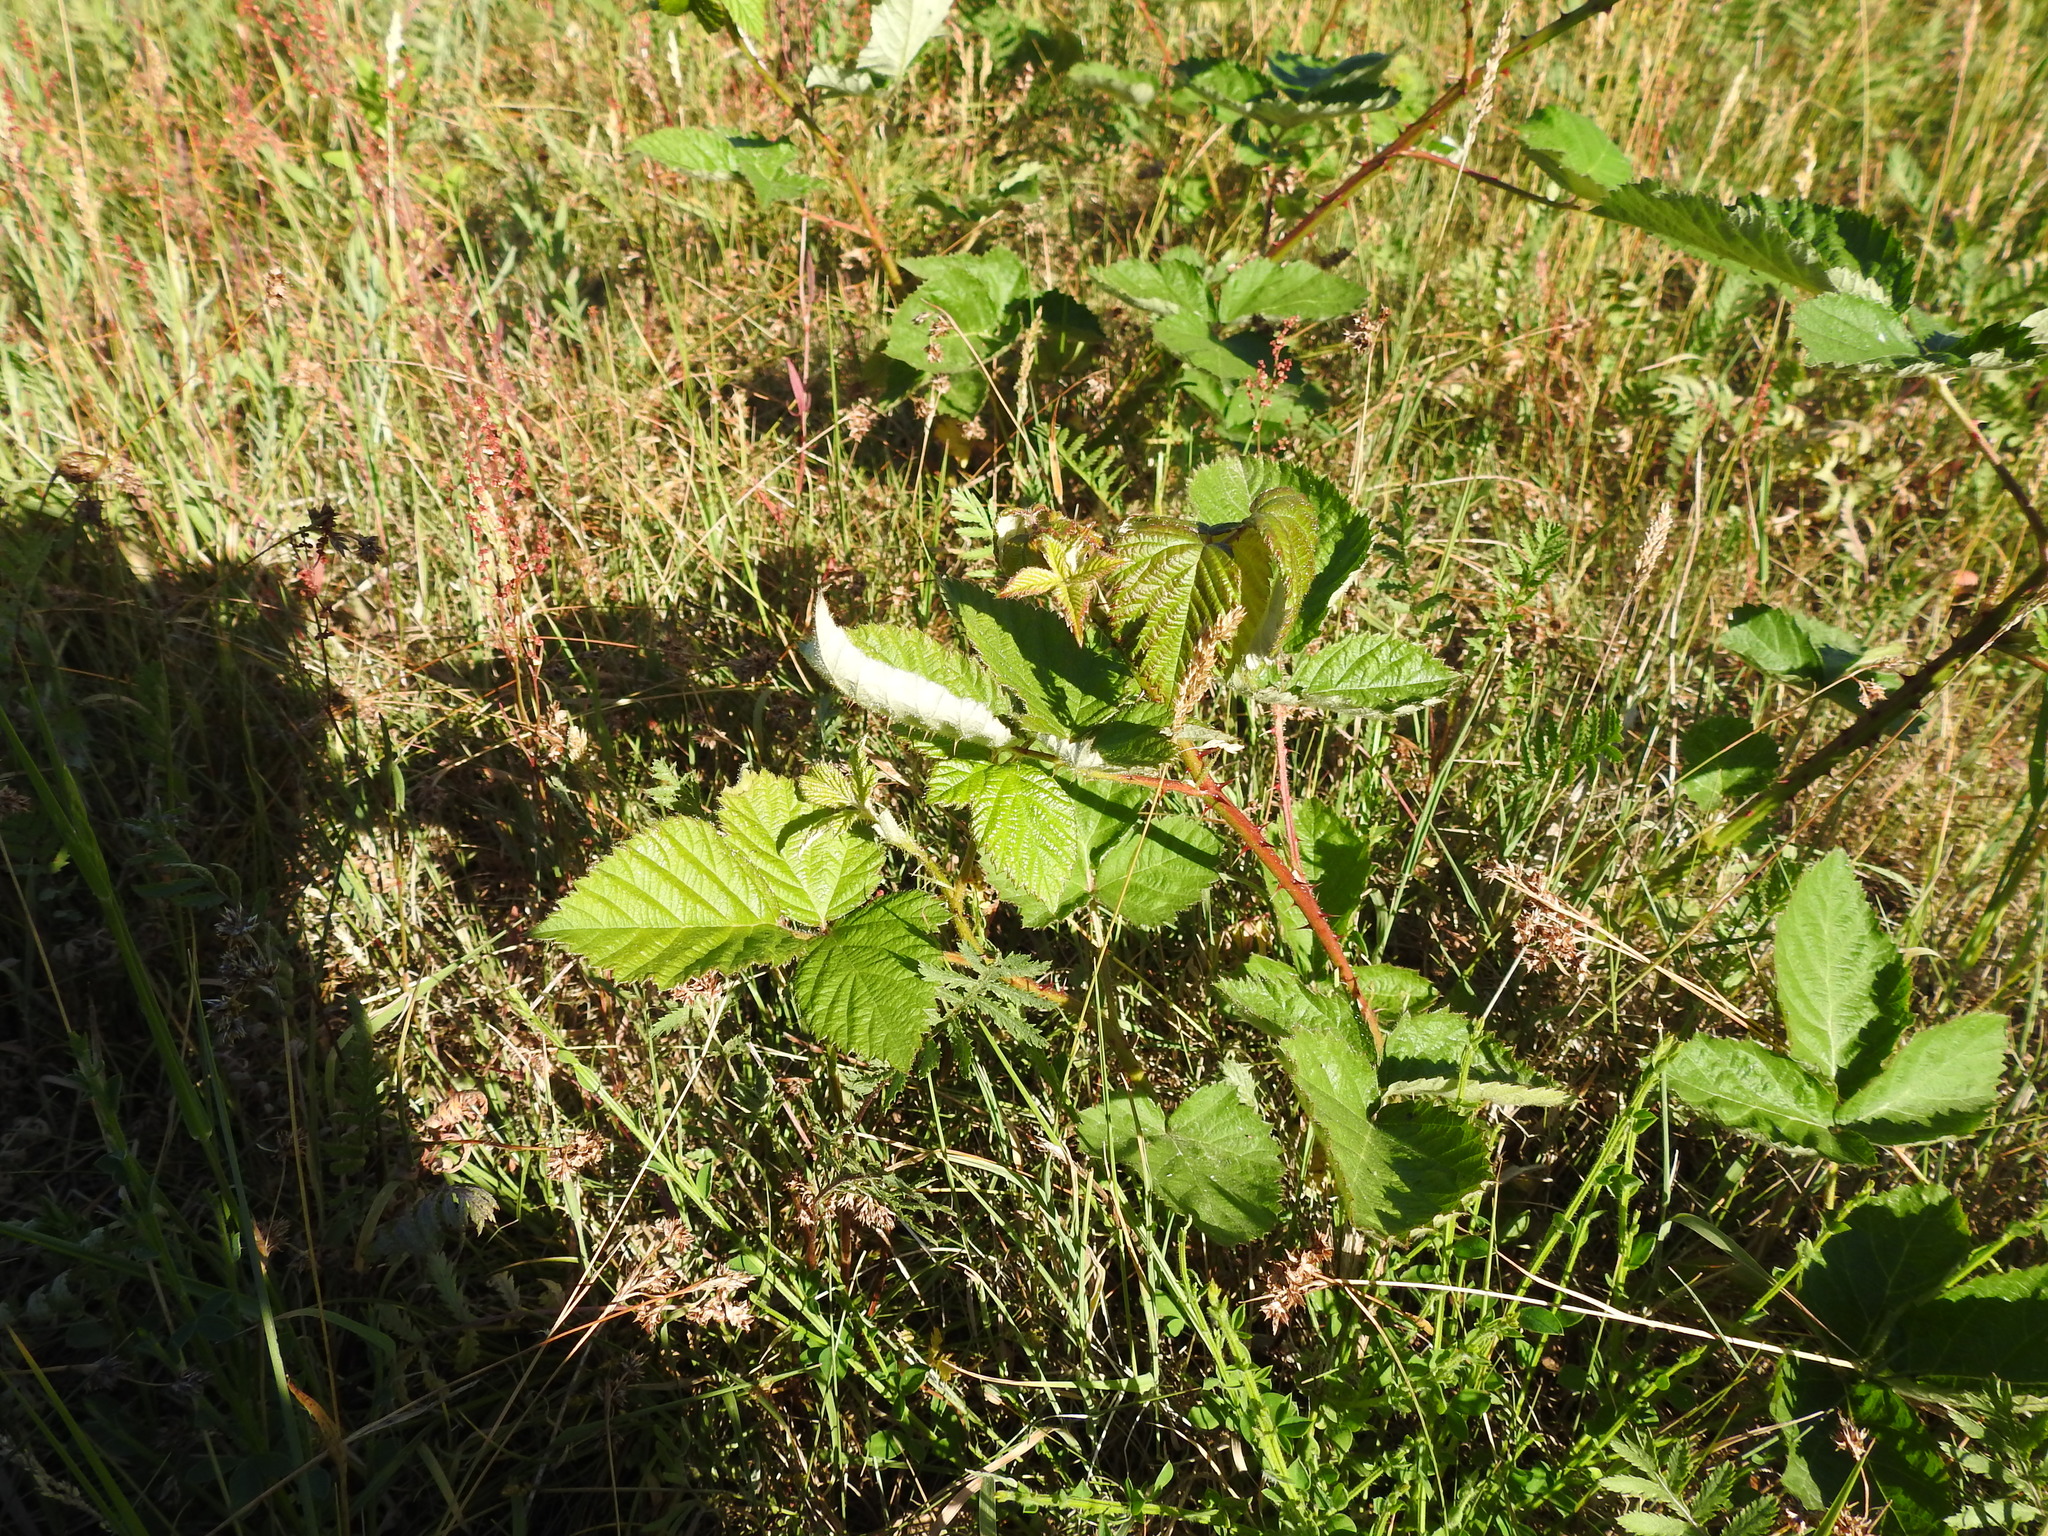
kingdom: Plantae
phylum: Tracheophyta
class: Magnoliopsida
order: Rosales
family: Rosaceae
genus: Rubus
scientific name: Rubus armeniacus
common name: Himalayan blackberry
